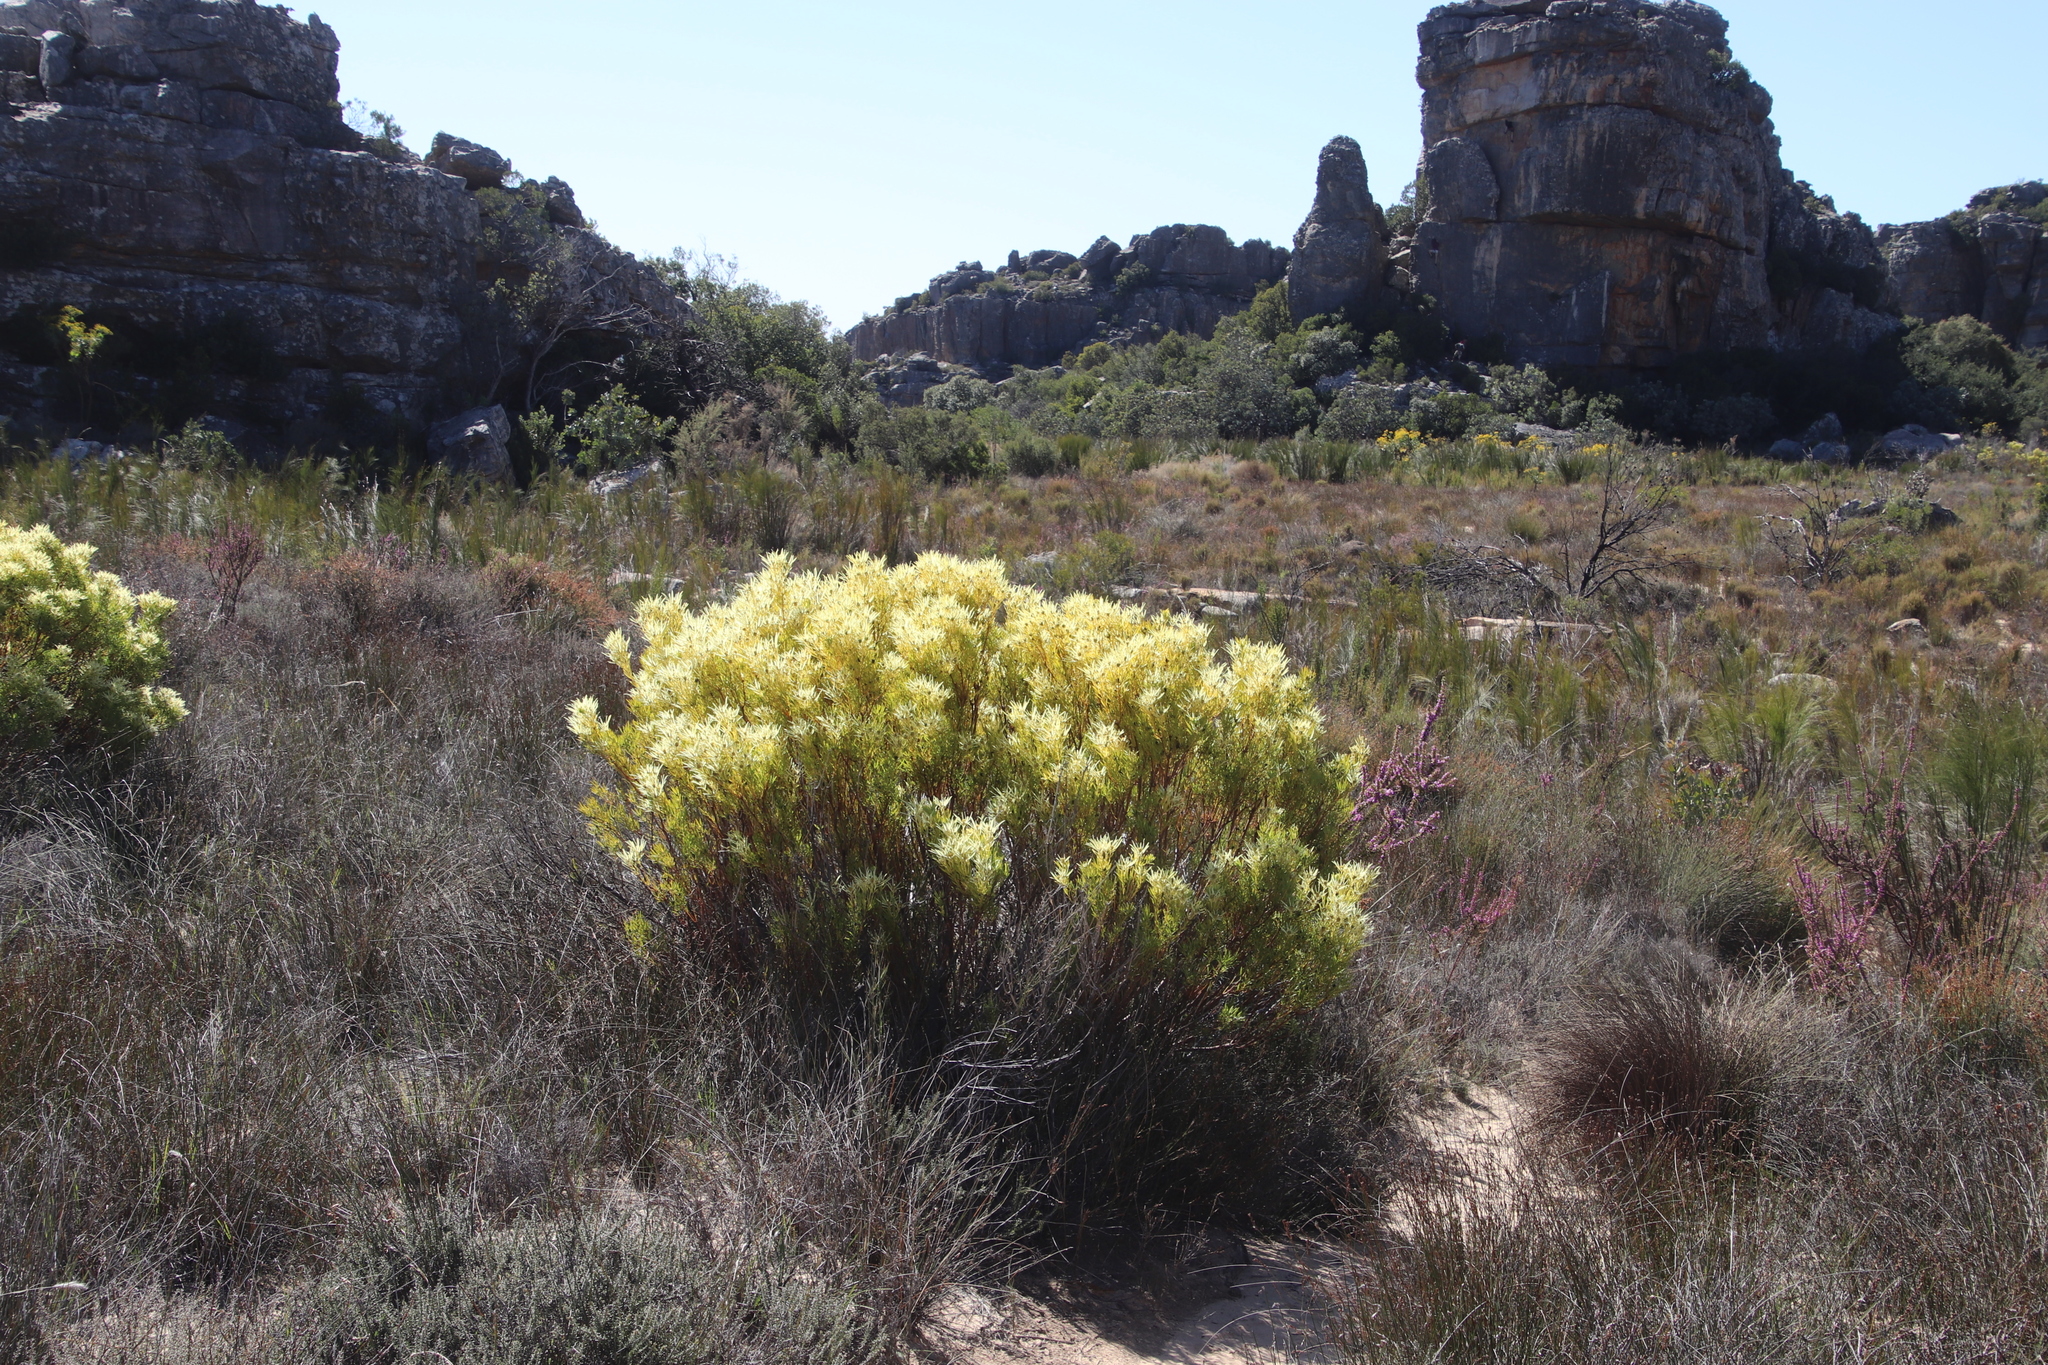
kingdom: Plantae
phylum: Tracheophyta
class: Magnoliopsida
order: Proteales
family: Proteaceae
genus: Leucadendron
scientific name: Leucadendron salignum
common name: Common sunshine conebush
